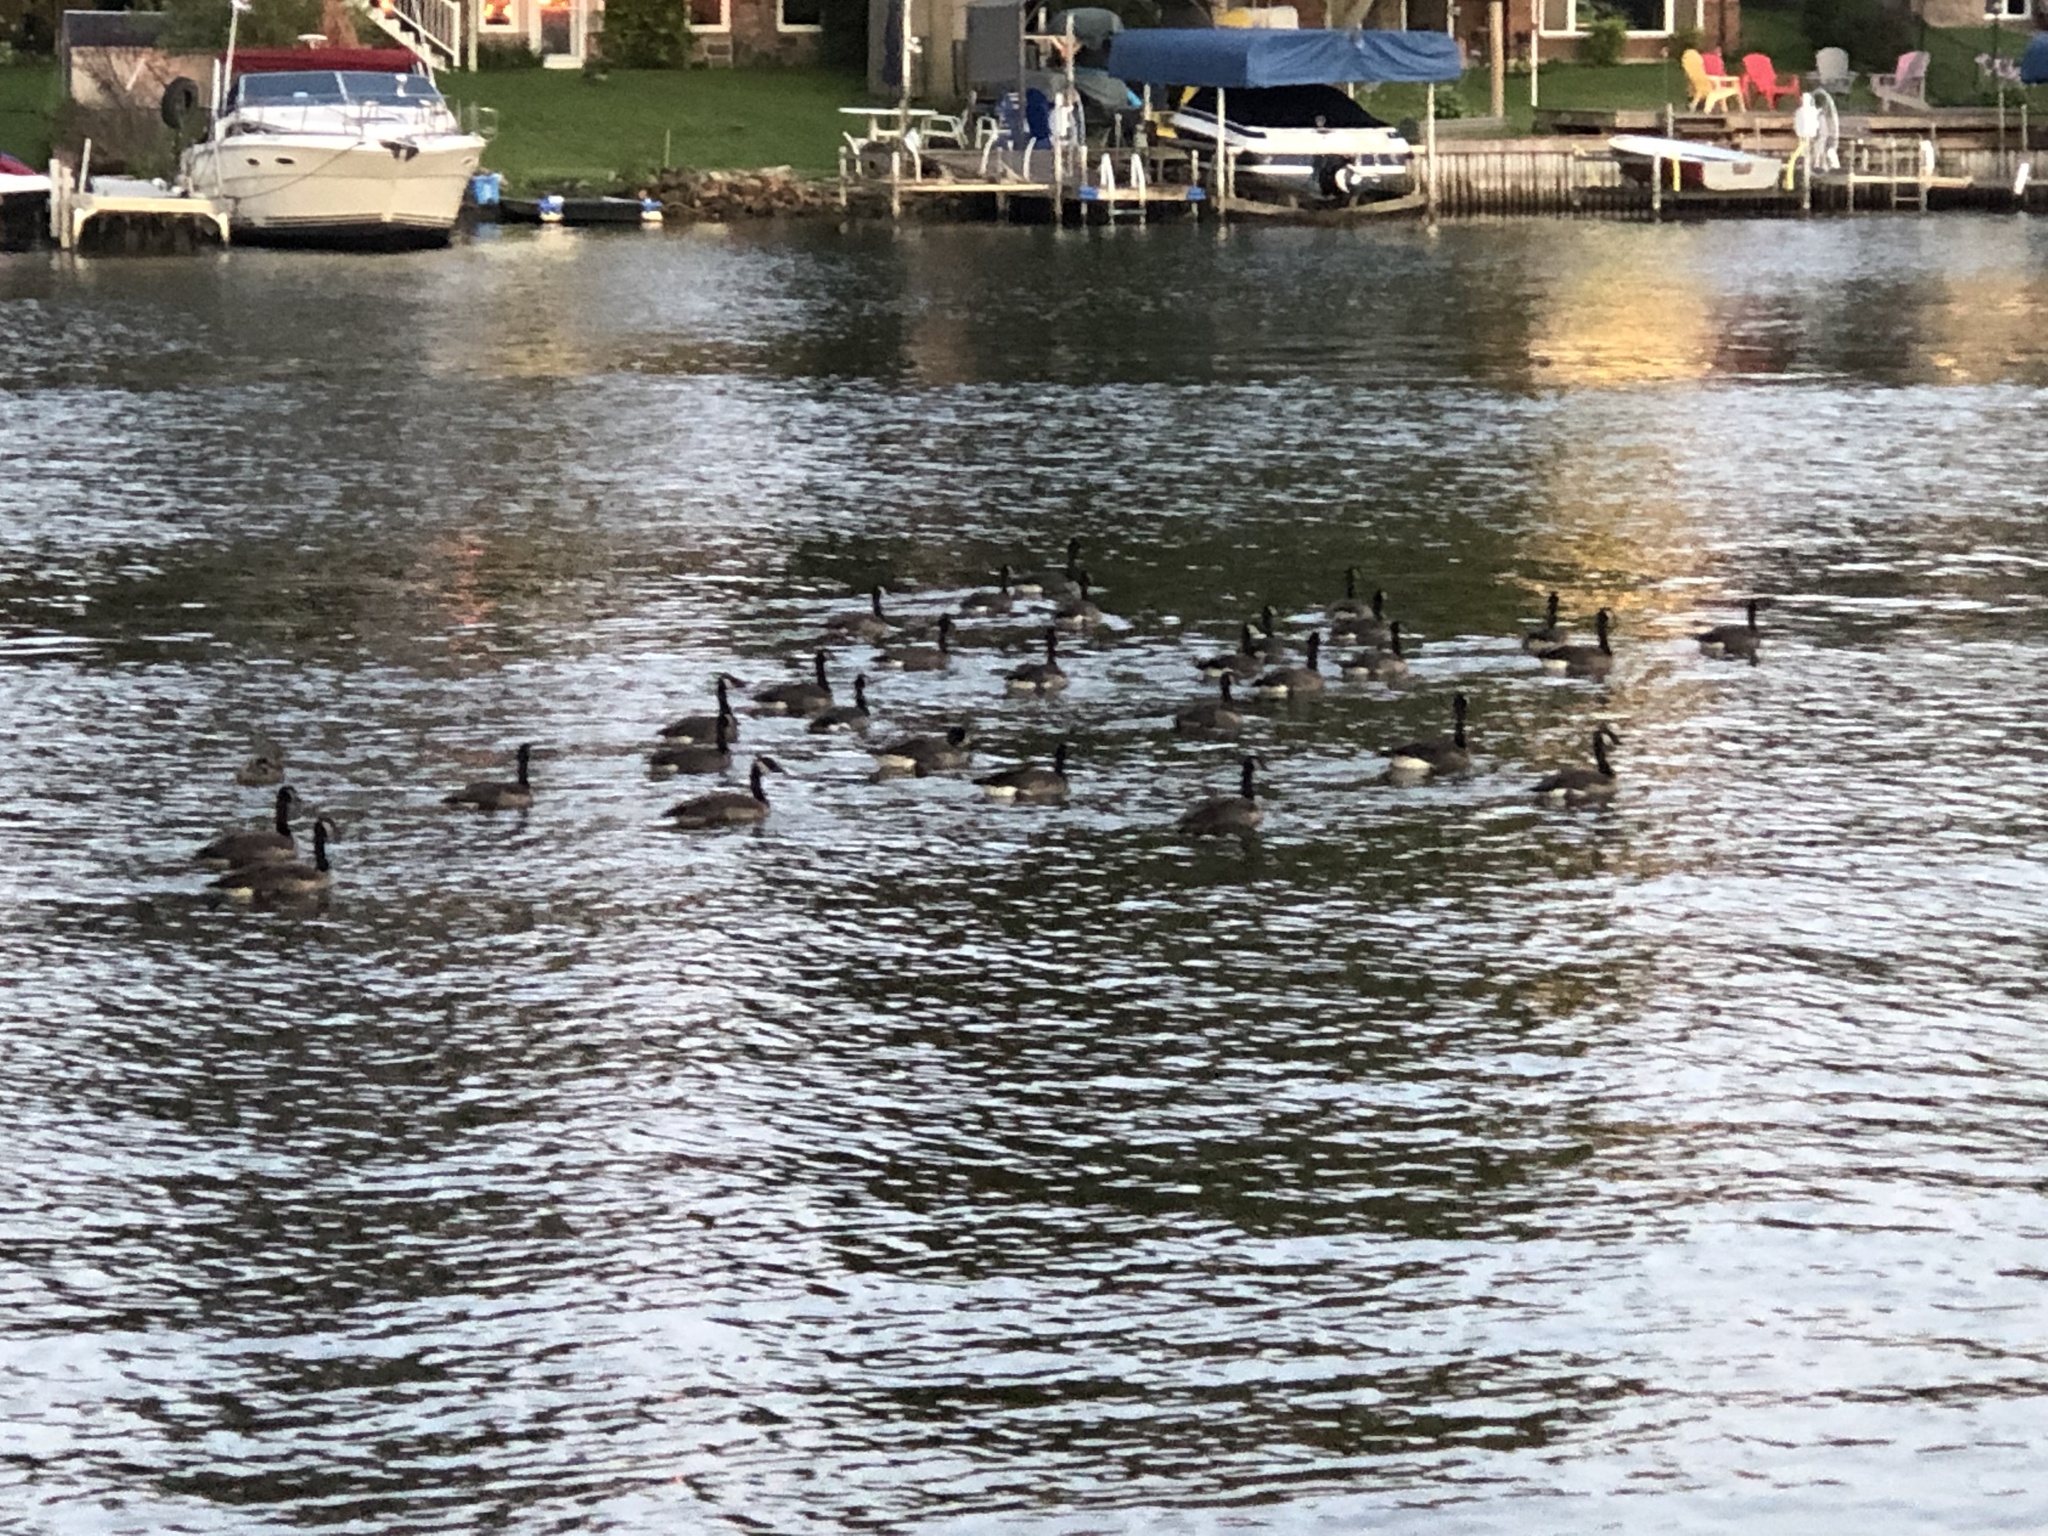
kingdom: Animalia
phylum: Chordata
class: Aves
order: Anseriformes
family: Anatidae
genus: Branta
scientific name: Branta canadensis
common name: Canada goose
